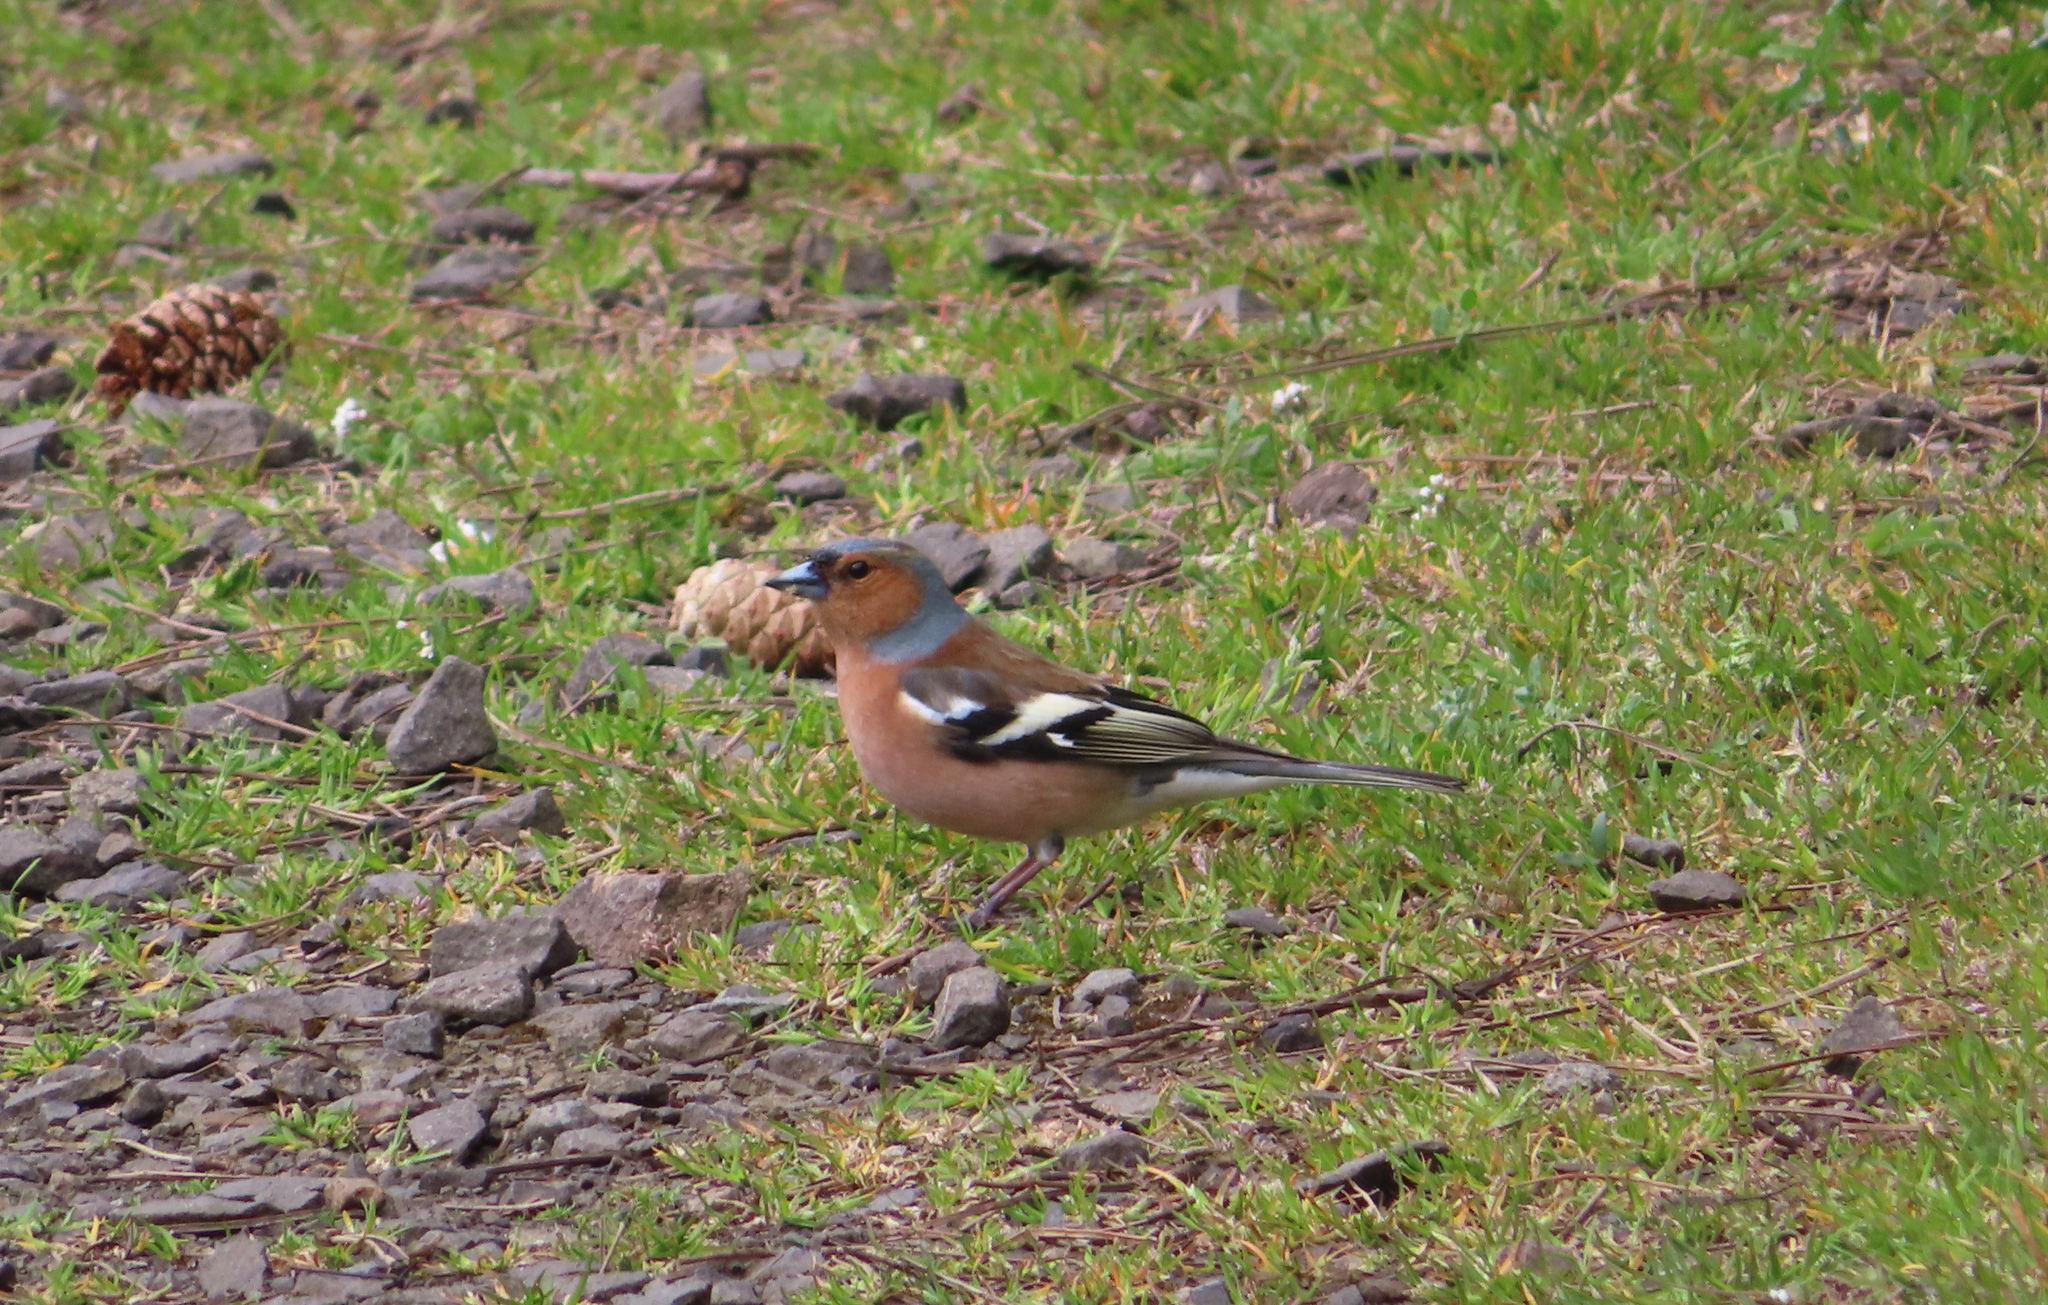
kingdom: Animalia
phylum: Chordata
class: Aves
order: Passeriformes
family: Fringillidae
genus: Fringilla
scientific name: Fringilla coelebs
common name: Common chaffinch
